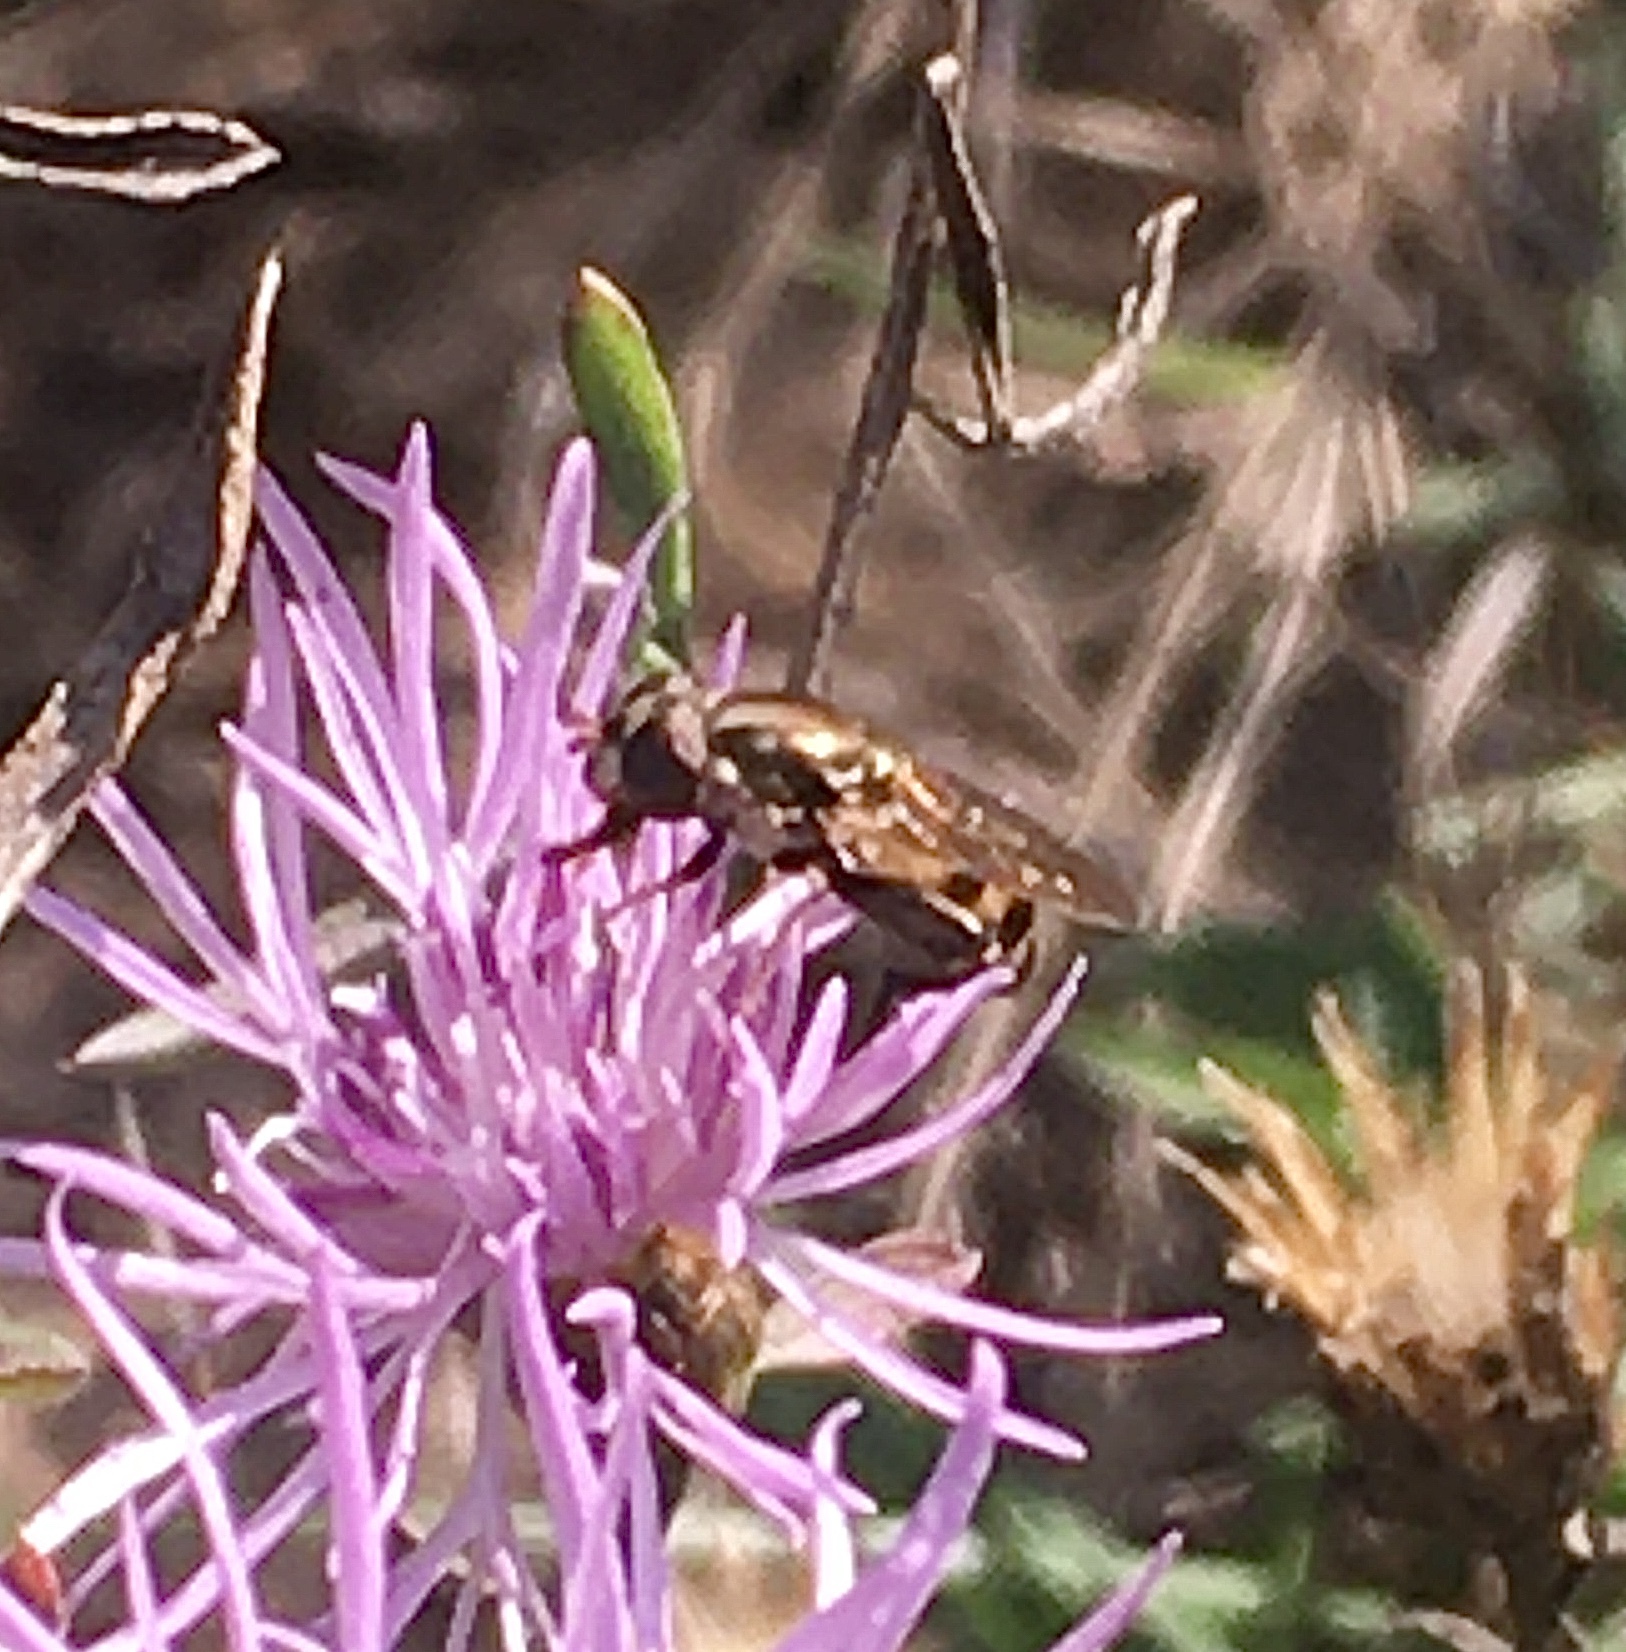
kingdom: Animalia
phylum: Arthropoda
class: Insecta
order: Diptera
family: Syrphidae
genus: Syritta
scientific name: Syritta pipiens
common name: Hover fly
